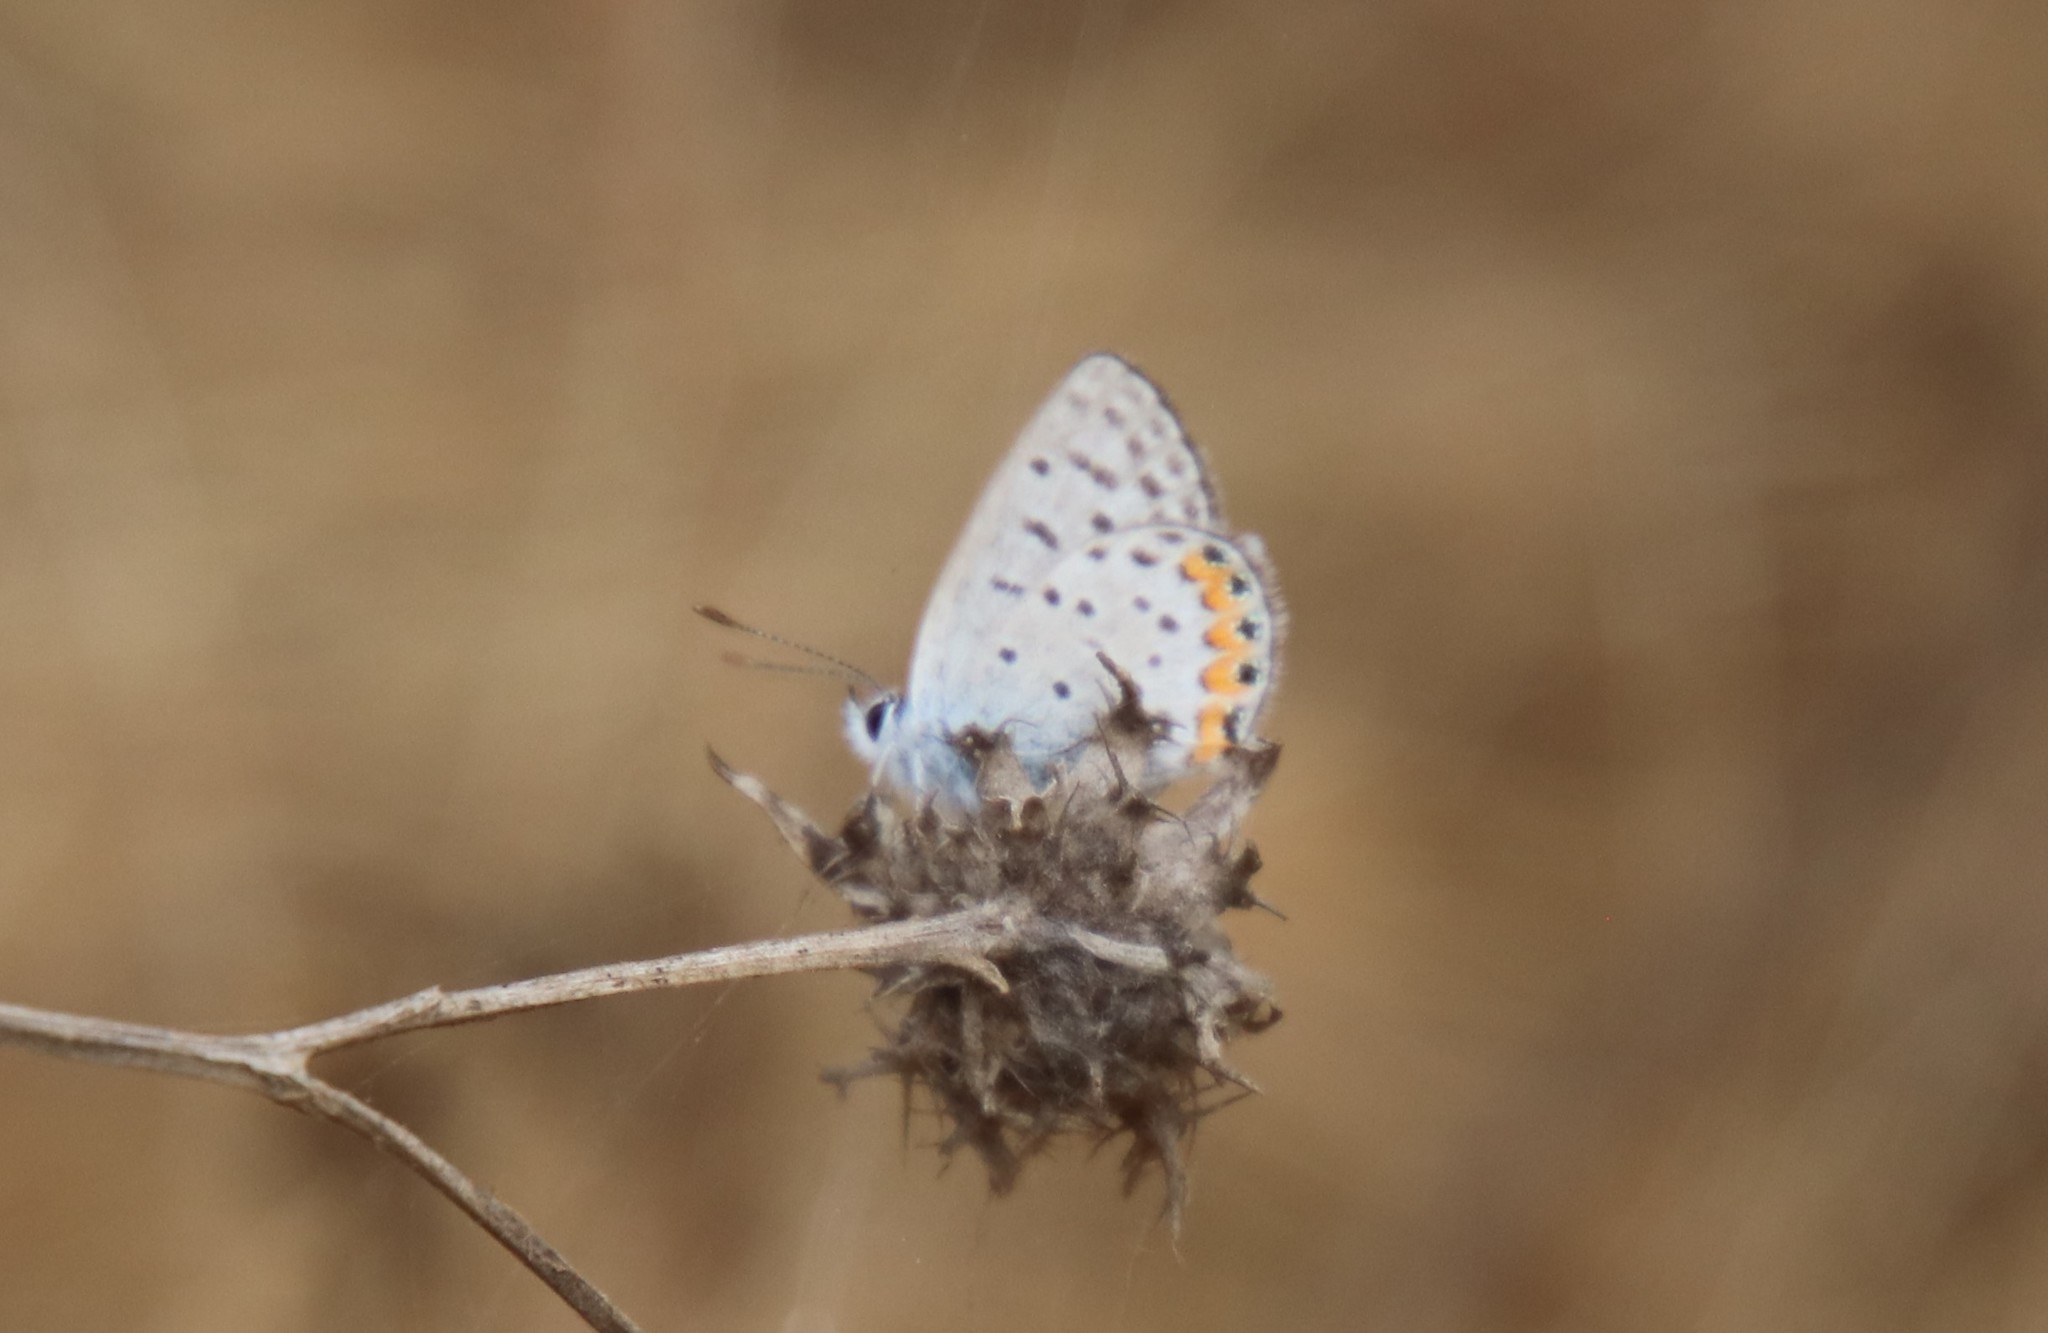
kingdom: Animalia
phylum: Arthropoda
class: Insecta
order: Lepidoptera
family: Lycaenidae
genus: Icaricia
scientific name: Icaricia acmon
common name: Acmon blue
